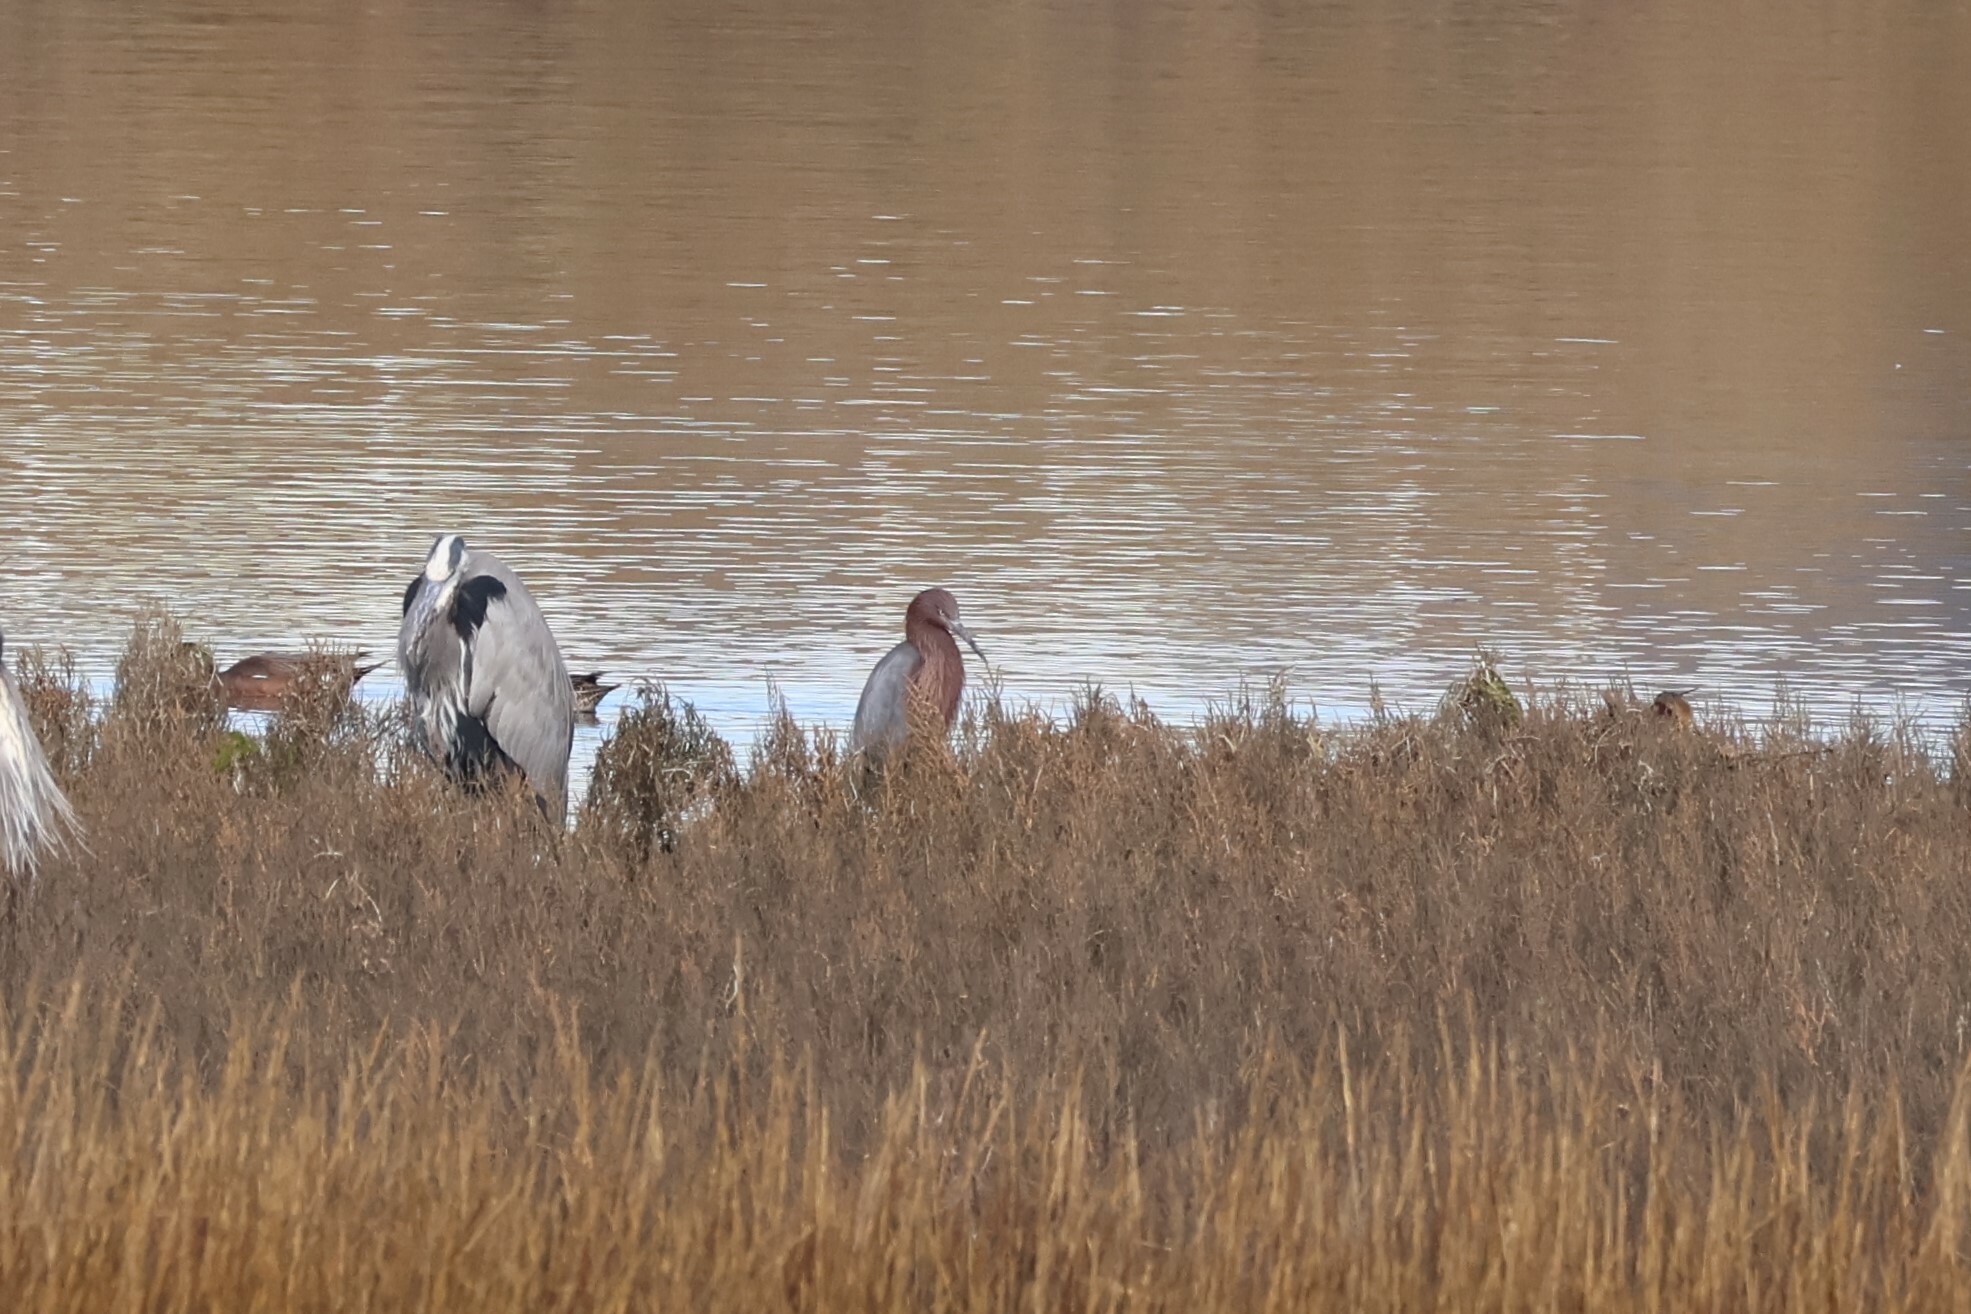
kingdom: Animalia
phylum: Chordata
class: Aves
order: Pelecaniformes
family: Ardeidae
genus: Egretta
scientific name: Egretta rufescens
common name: Reddish egret
